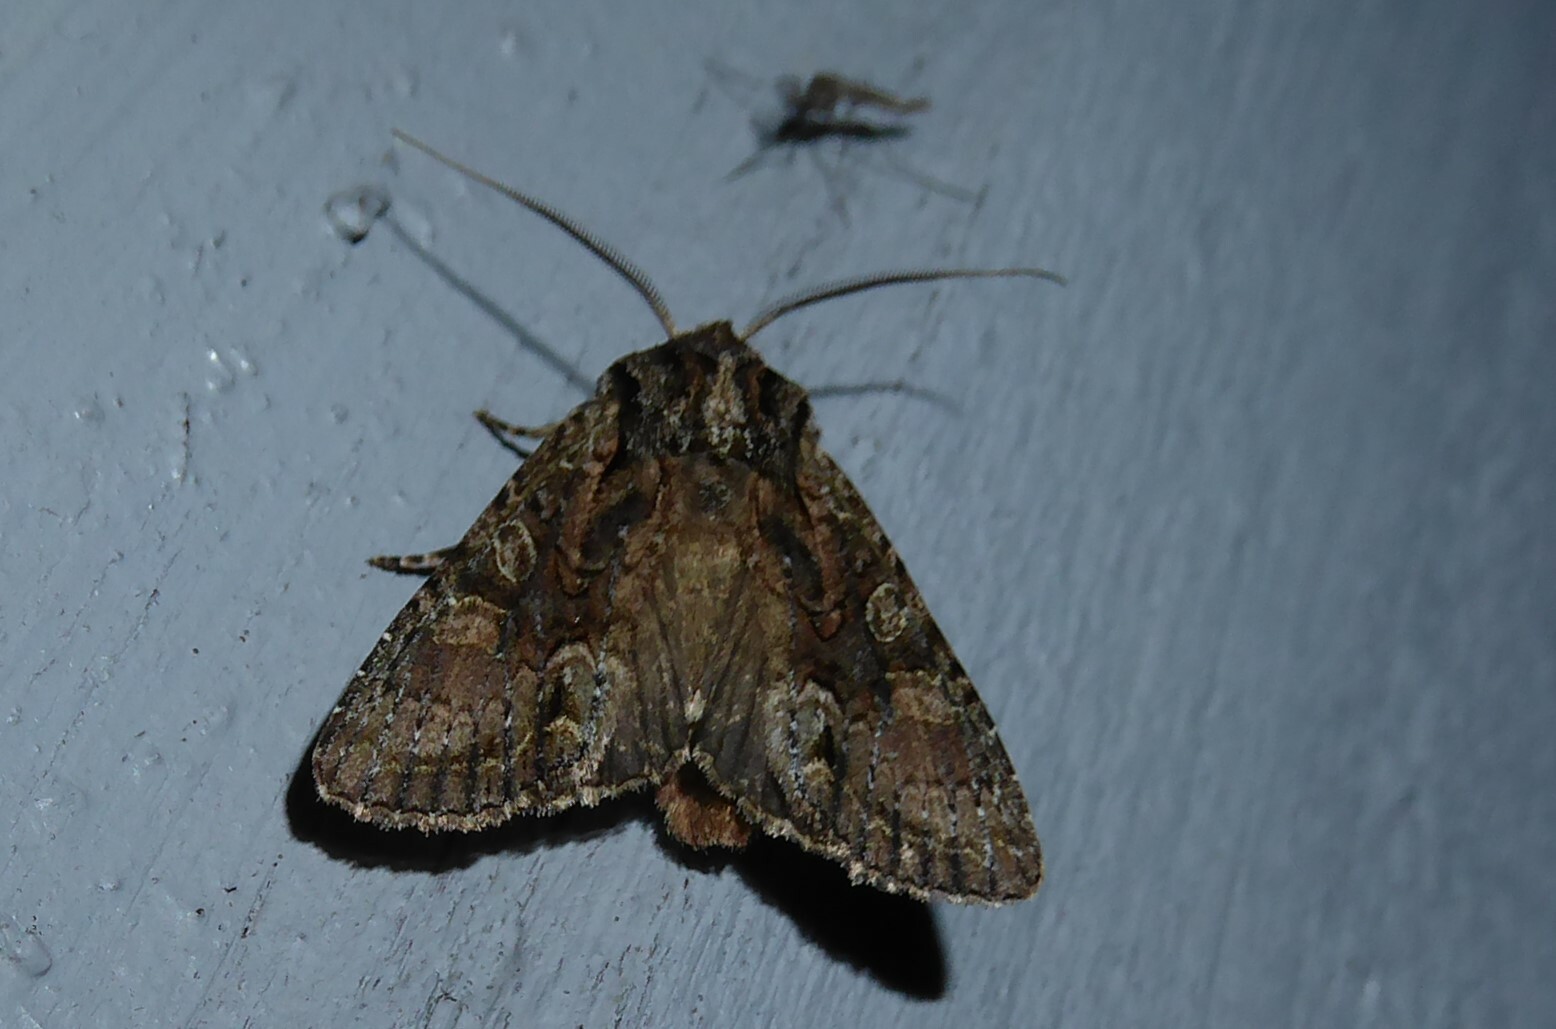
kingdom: Animalia
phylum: Arthropoda
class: Insecta
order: Lepidoptera
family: Noctuidae
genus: Ichneutica
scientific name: Ichneutica mutans
